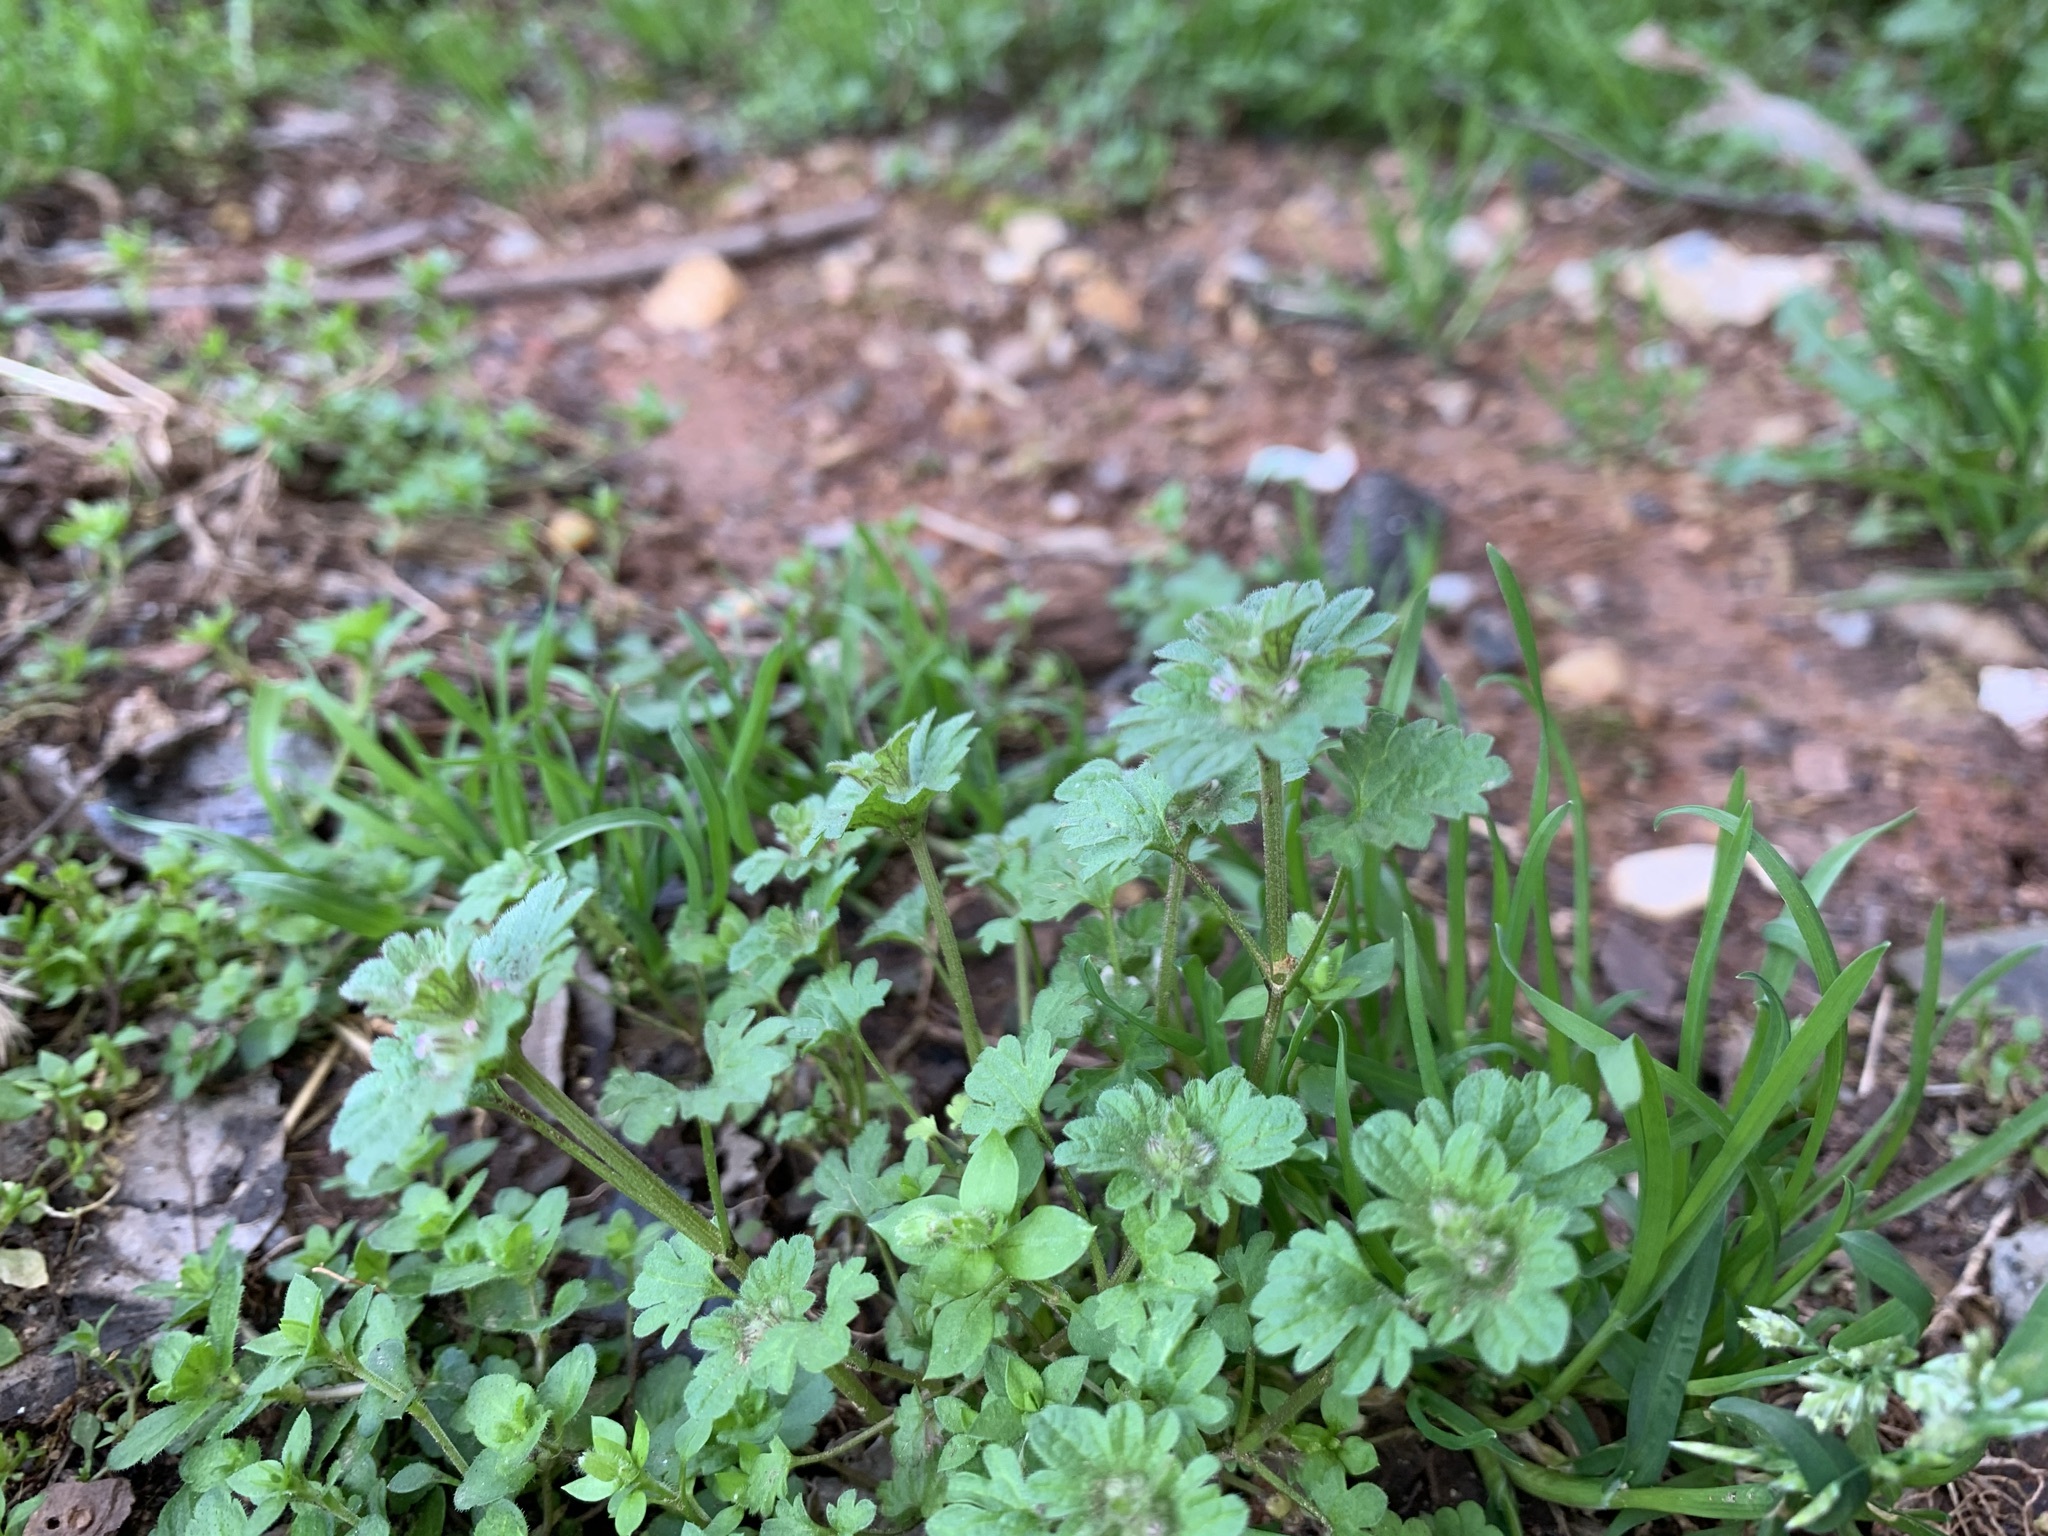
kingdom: Plantae
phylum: Tracheophyta
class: Magnoliopsida
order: Lamiales
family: Lamiaceae
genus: Lamium
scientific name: Lamium amplexicaule
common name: Henbit dead-nettle
